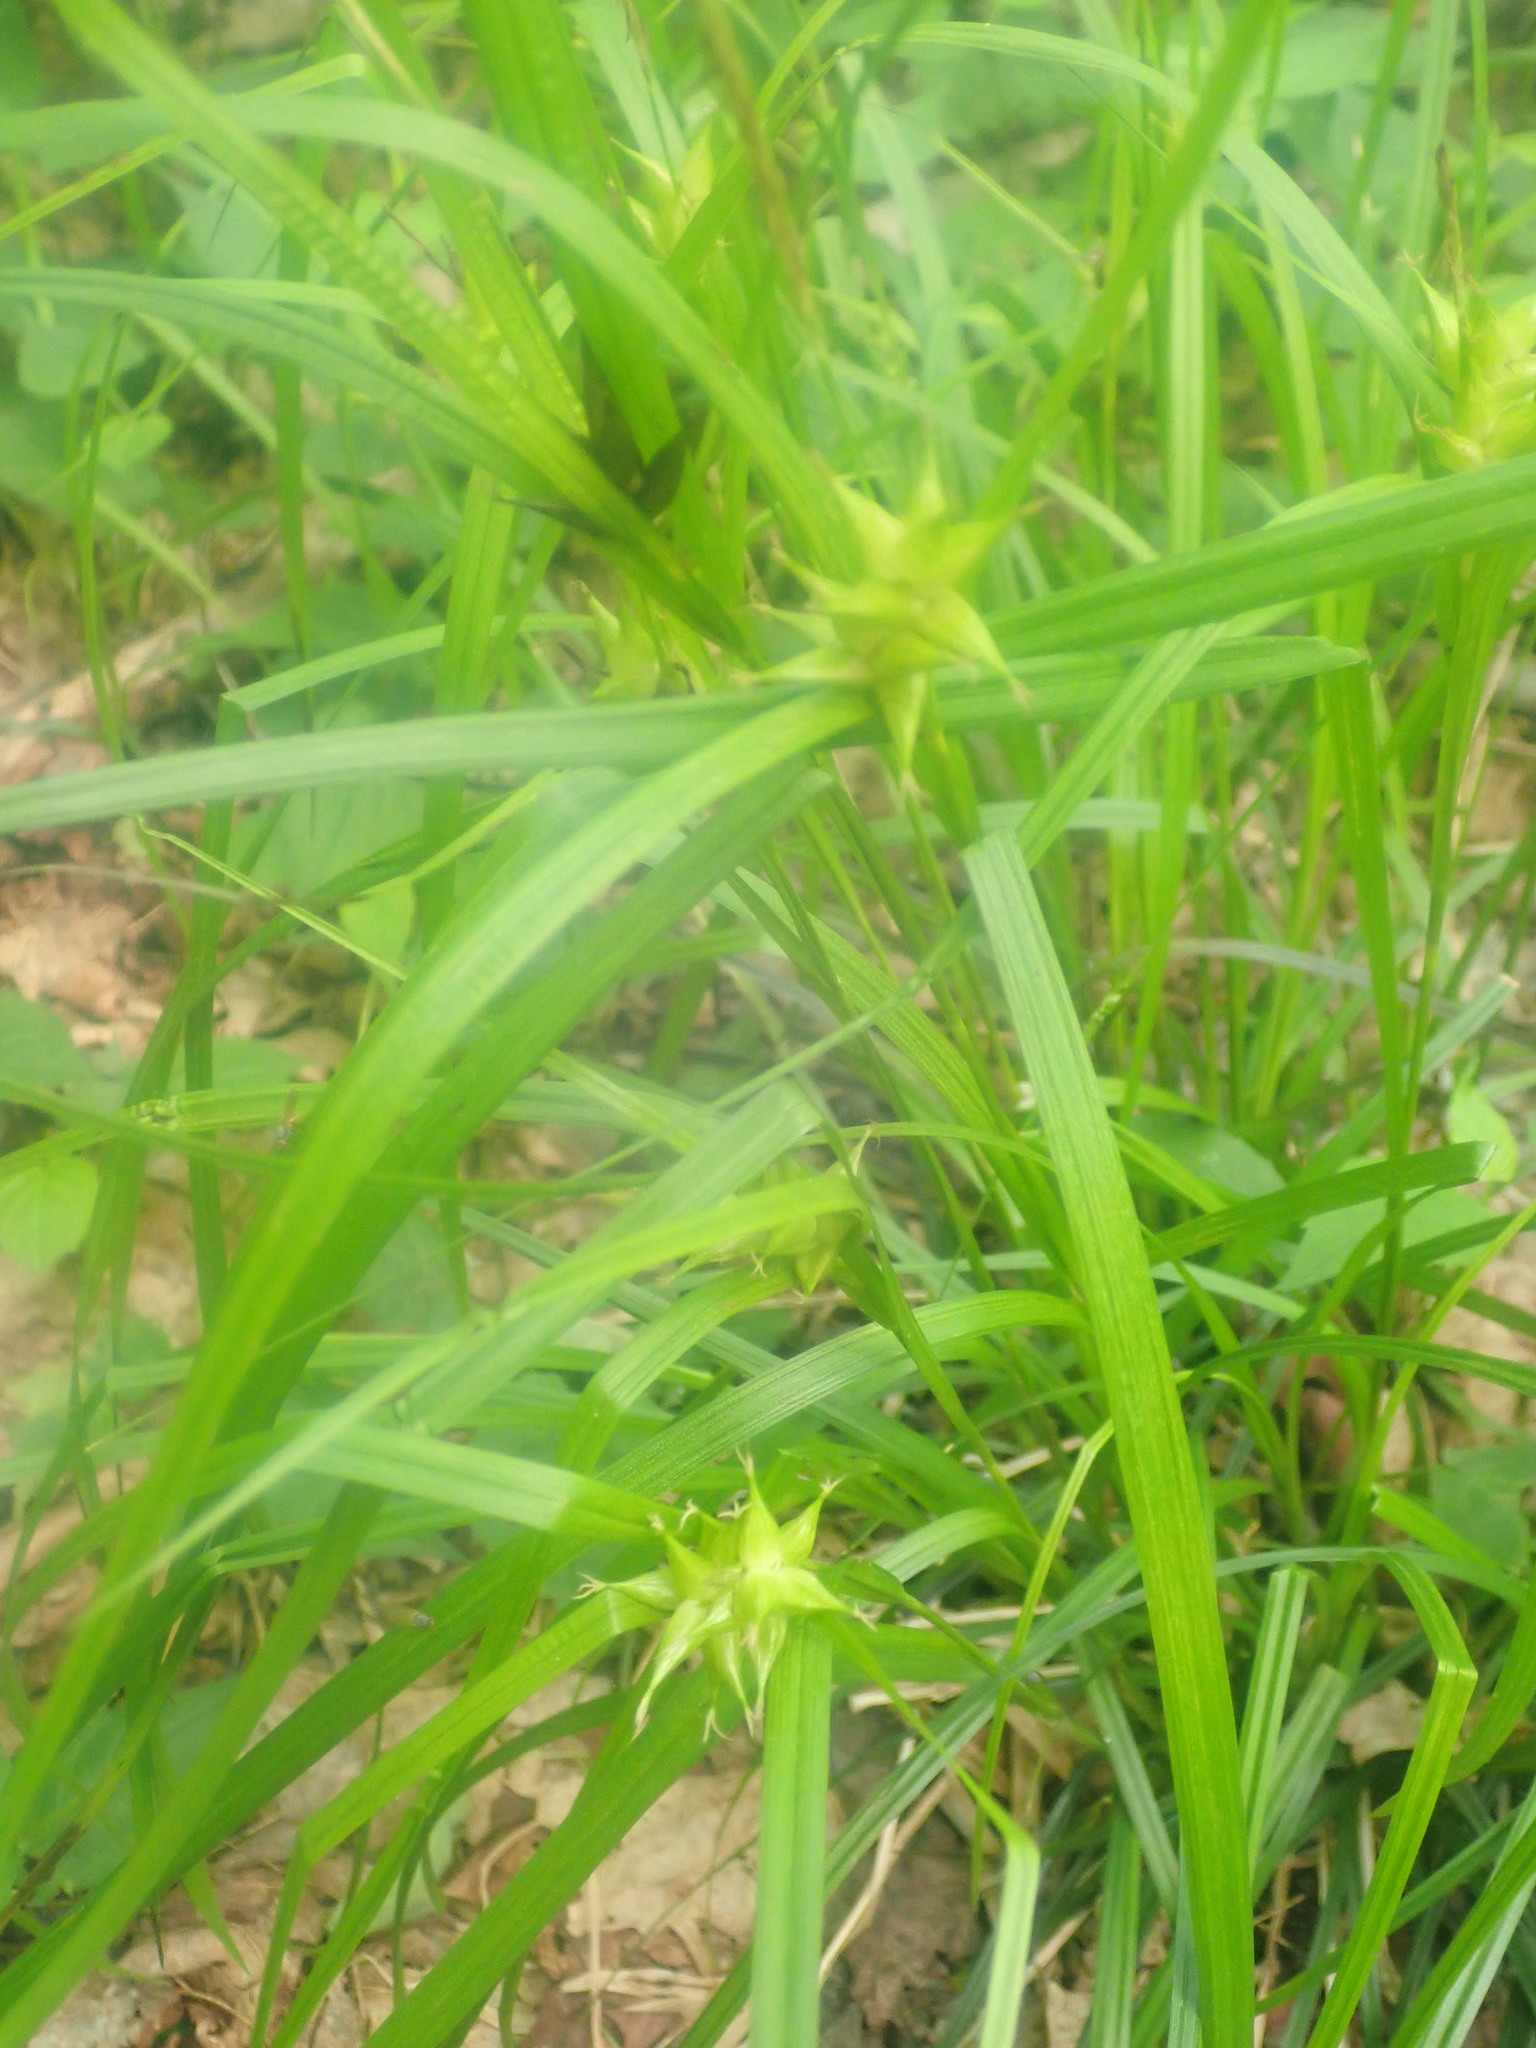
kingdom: Plantae
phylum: Tracheophyta
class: Liliopsida
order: Poales
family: Cyperaceae
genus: Carex
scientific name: Carex intumescens
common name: Greater bladder sedge
